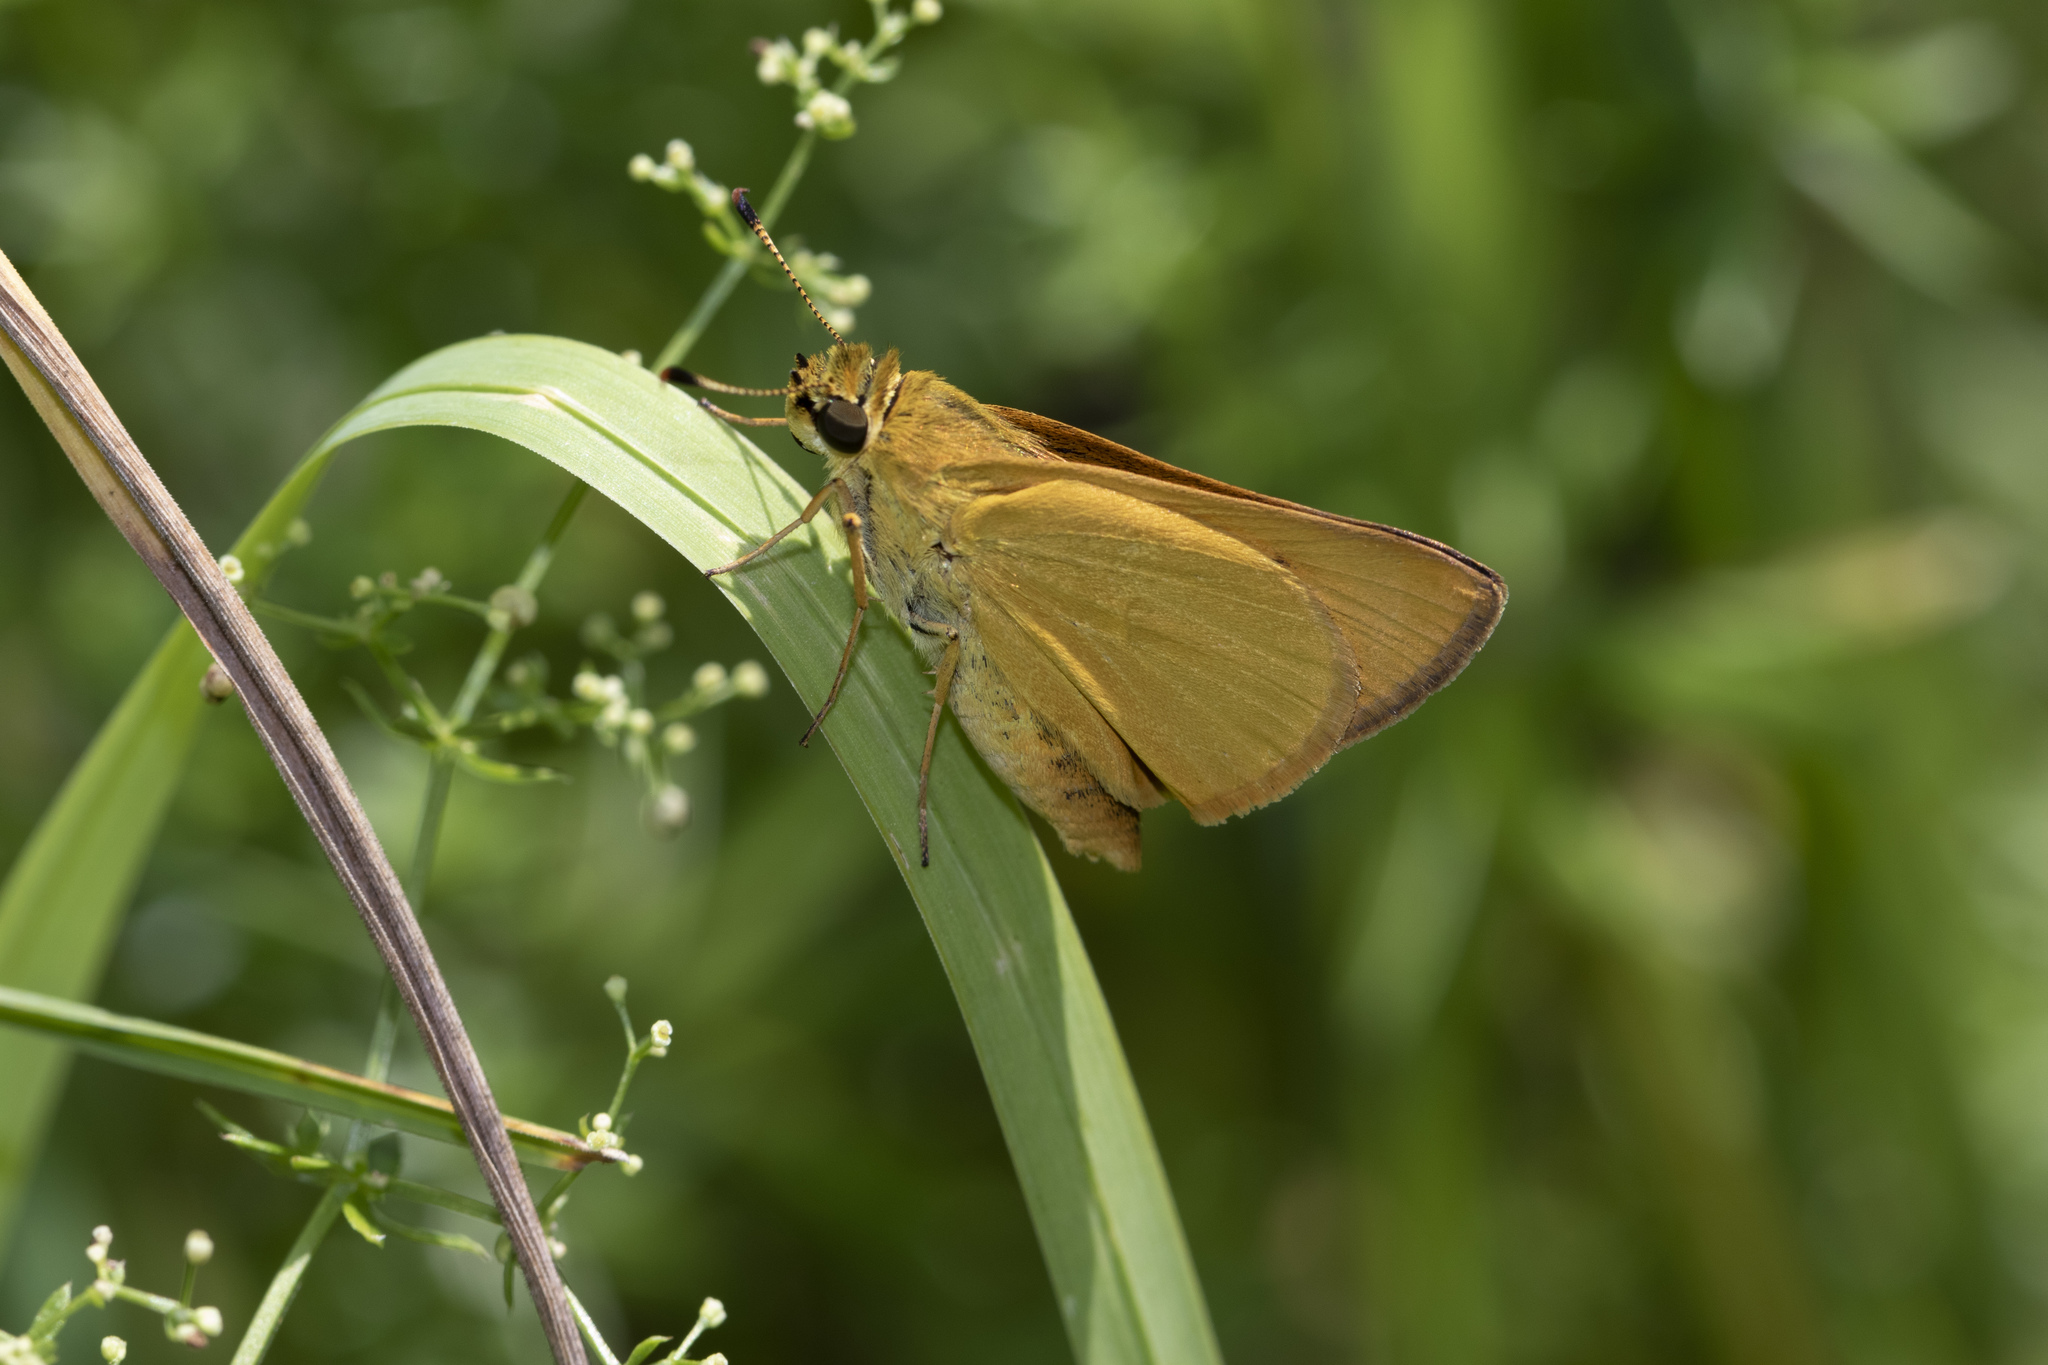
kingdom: Animalia
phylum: Arthropoda
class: Insecta
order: Lepidoptera
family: Hesperiidae
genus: Atrytone
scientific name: Atrytone delaware
